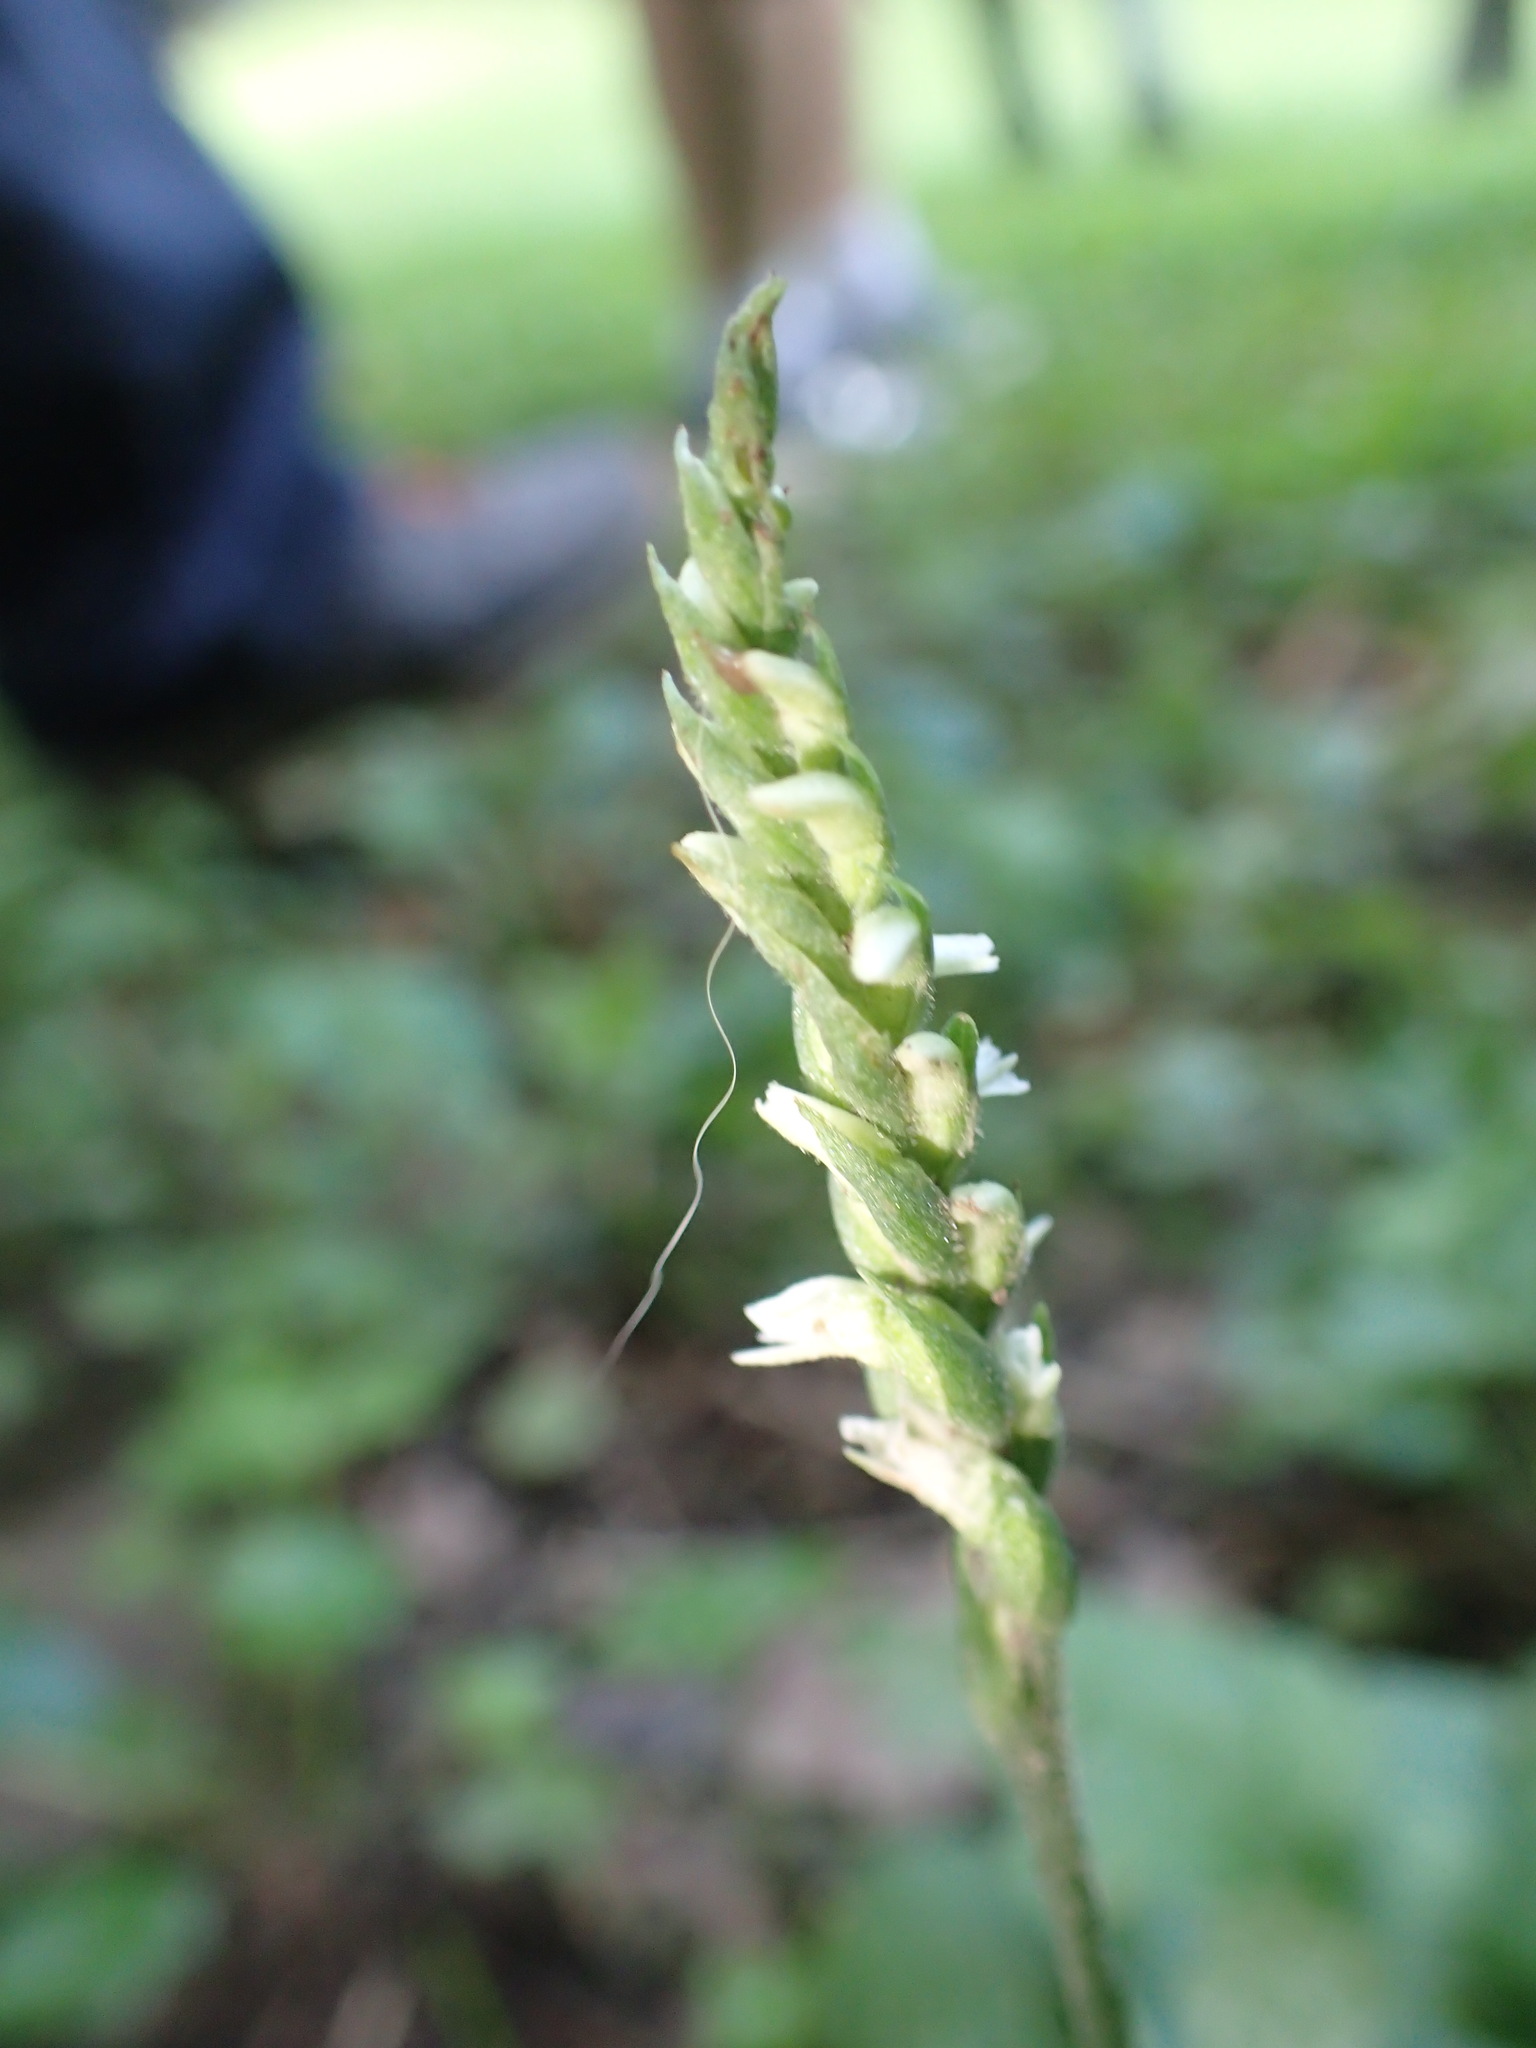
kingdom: Plantae
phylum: Tracheophyta
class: Liliopsida
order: Asparagales
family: Orchidaceae
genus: Spiranthes
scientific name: Spiranthes ovalis
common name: October ladies'-tresses
